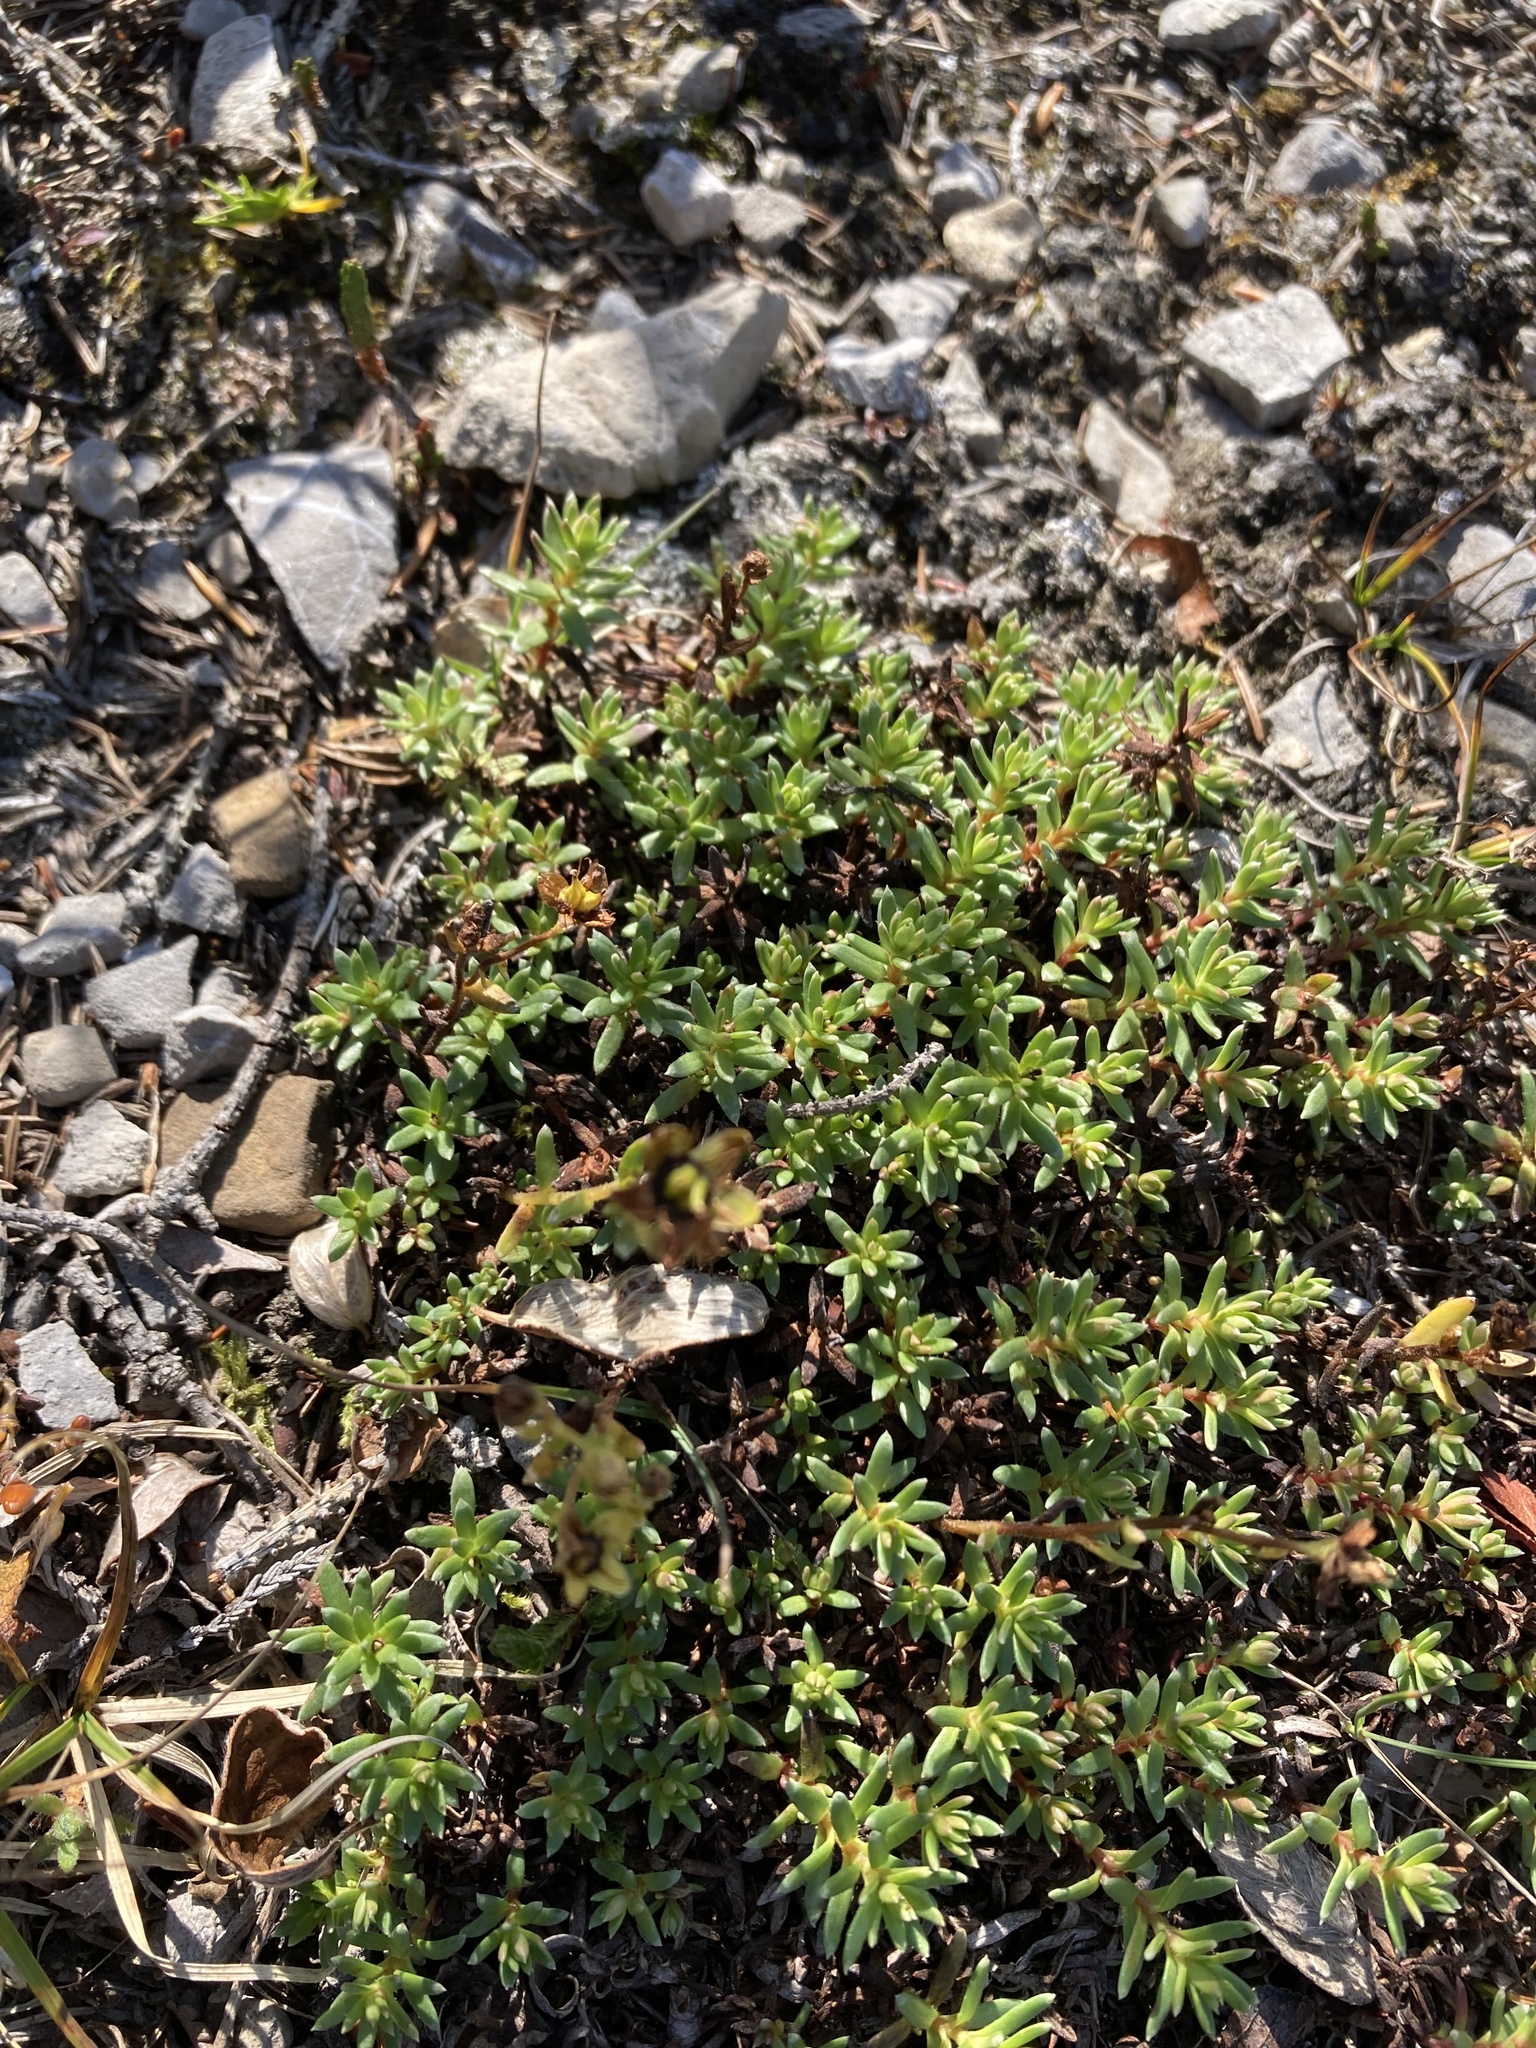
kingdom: Plantae
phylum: Tracheophyta
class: Magnoliopsida
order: Saxifragales
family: Saxifragaceae
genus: Saxifraga
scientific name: Saxifraga aizoides
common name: Yellow mountain saxifrage
